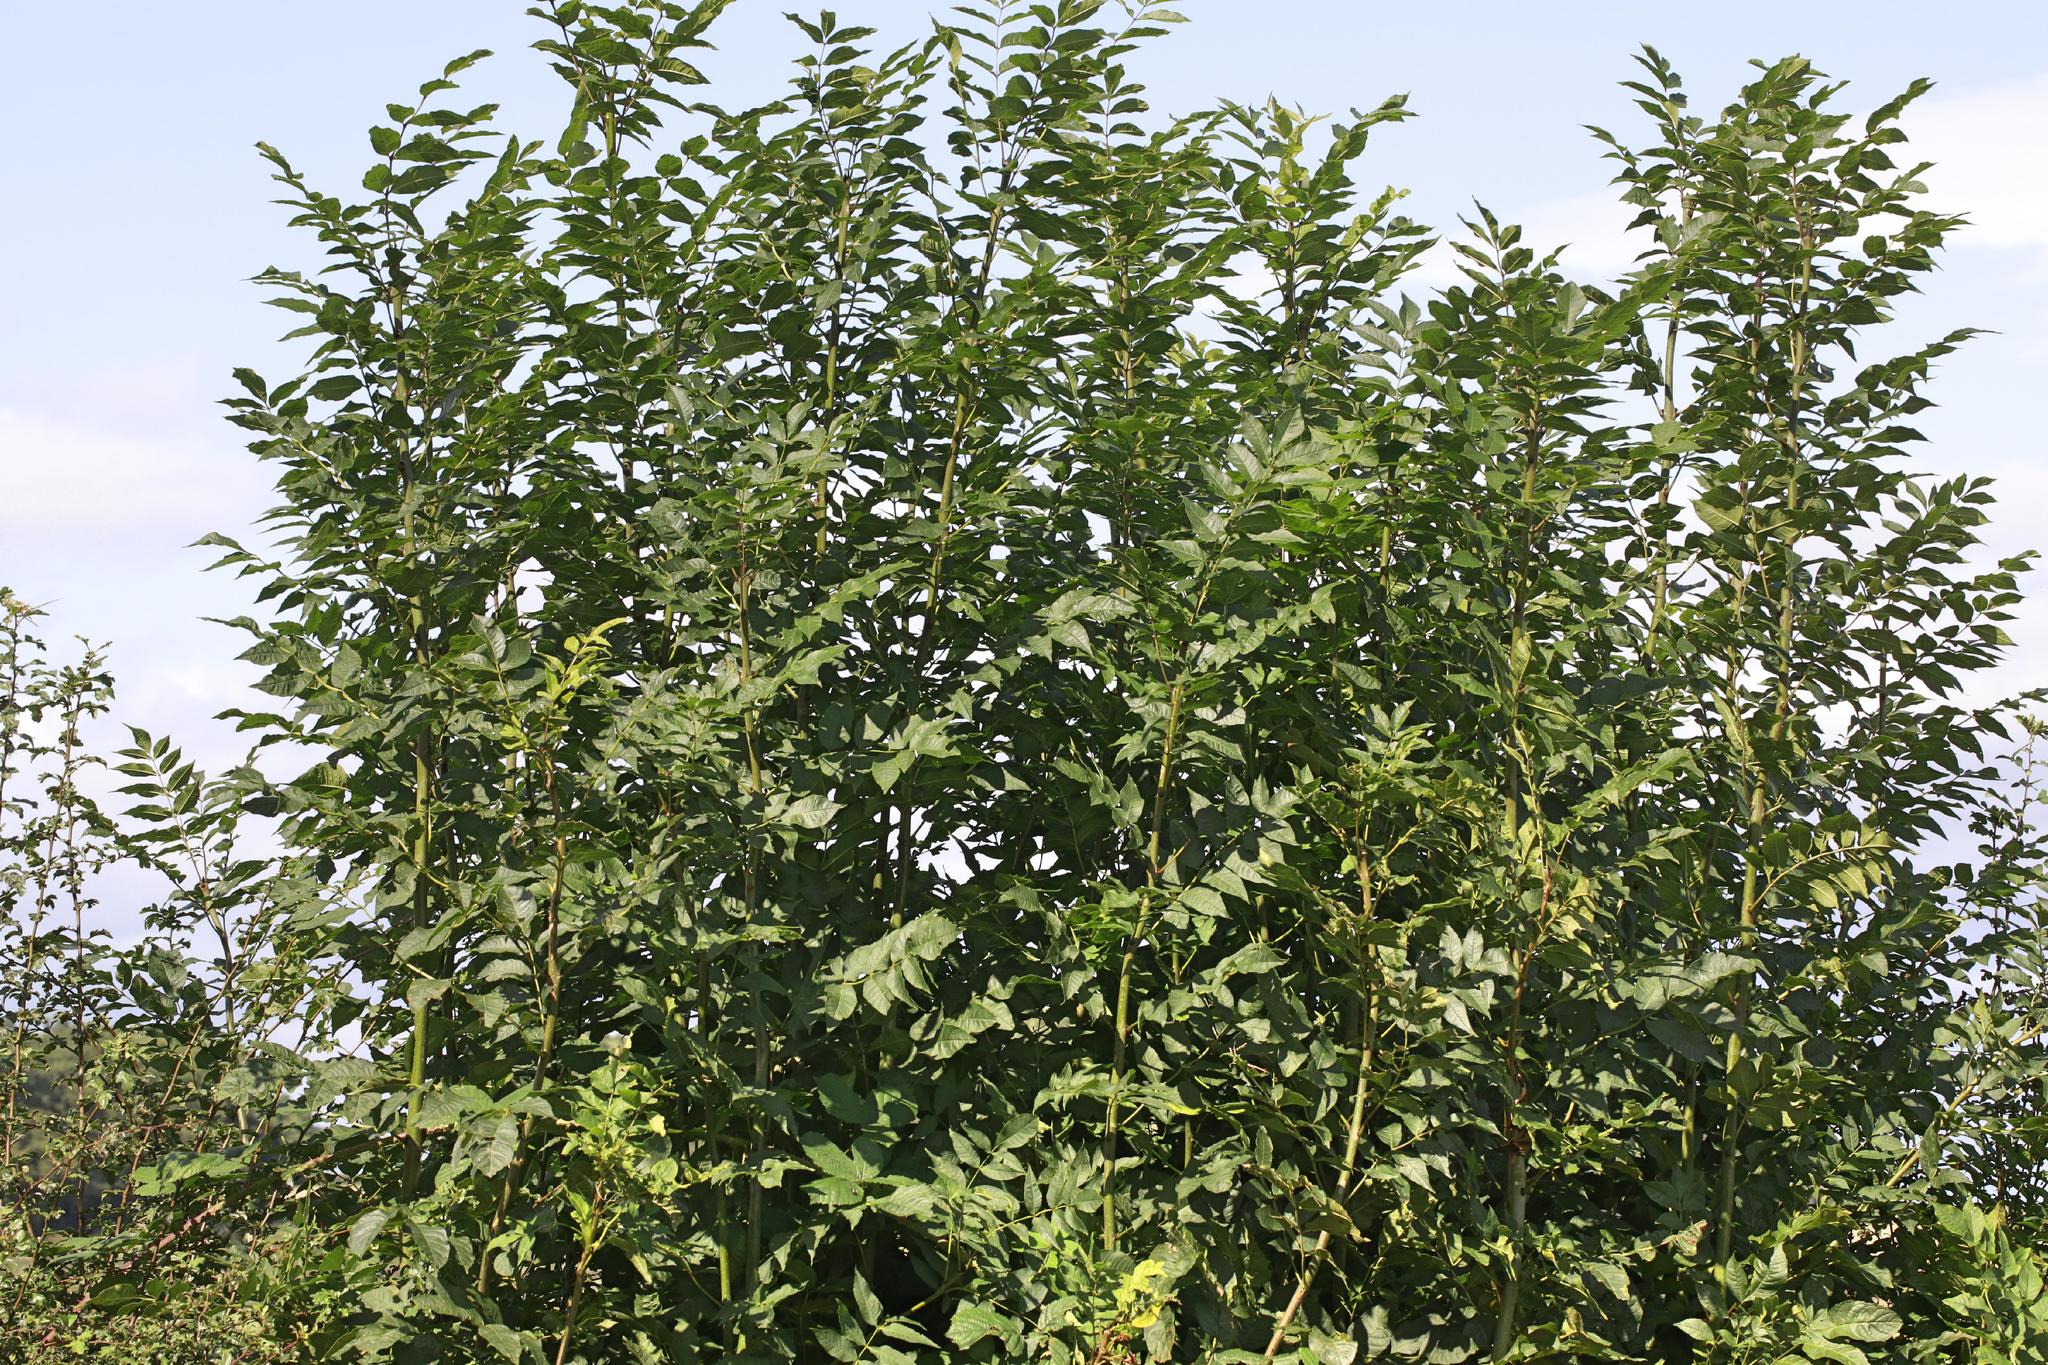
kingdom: Plantae
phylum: Tracheophyta
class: Magnoliopsida
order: Lamiales
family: Oleaceae
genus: Fraxinus
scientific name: Fraxinus excelsior
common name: European ash
